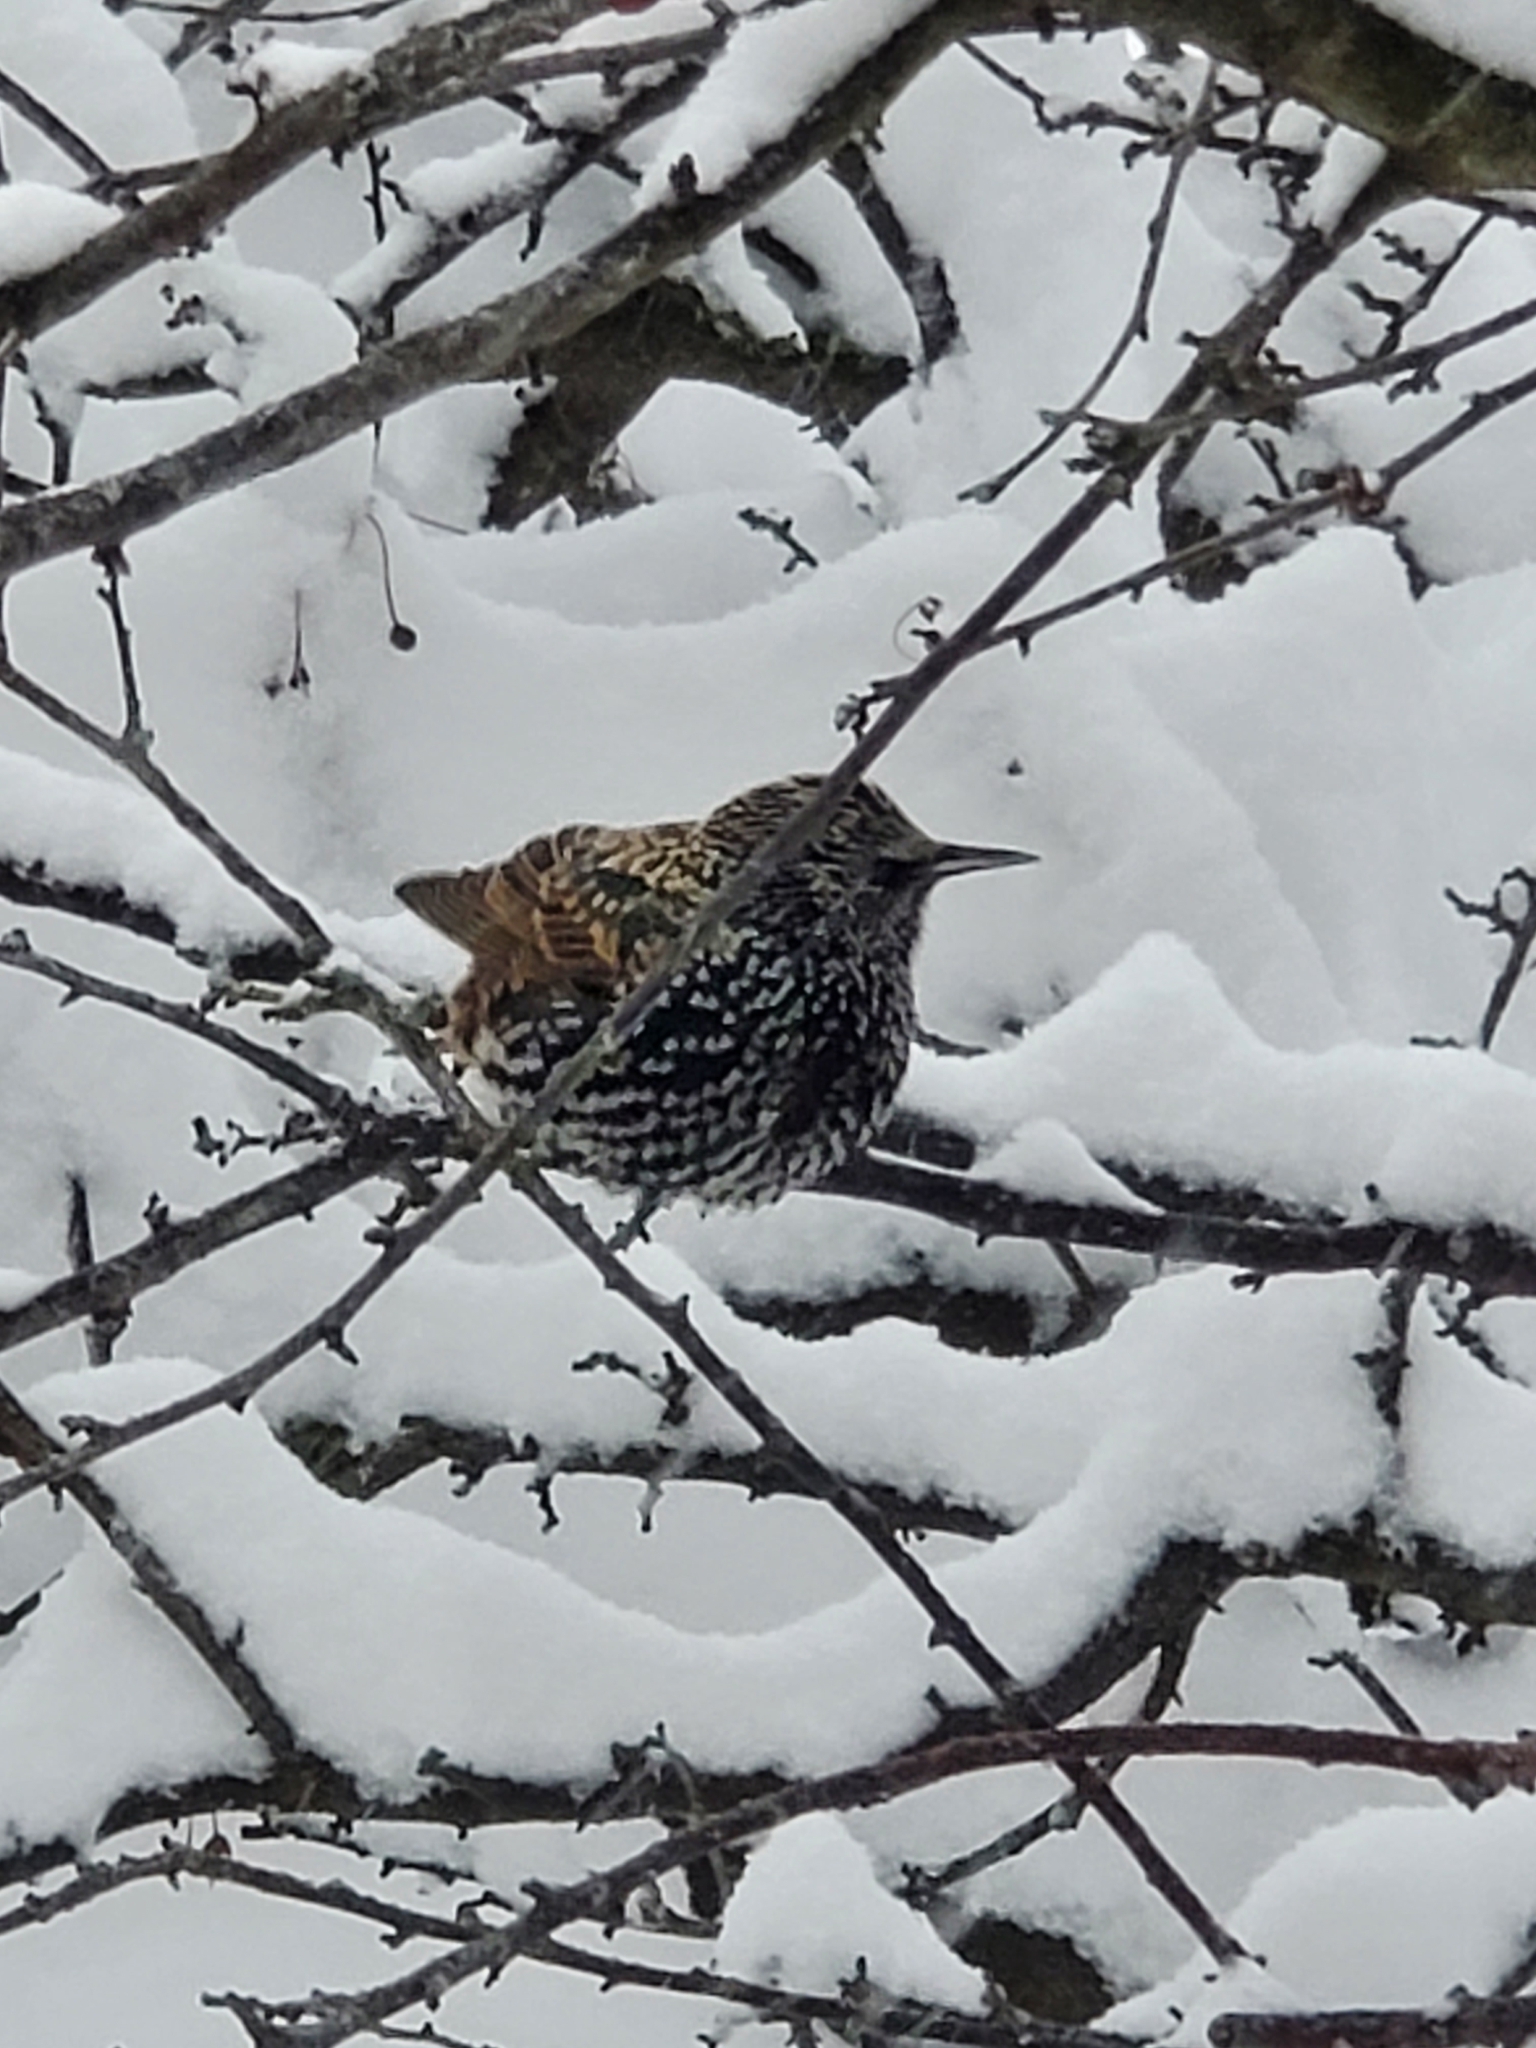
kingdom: Animalia
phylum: Chordata
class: Aves
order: Passeriformes
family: Sturnidae
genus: Sturnus
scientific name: Sturnus vulgaris
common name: Common starling
